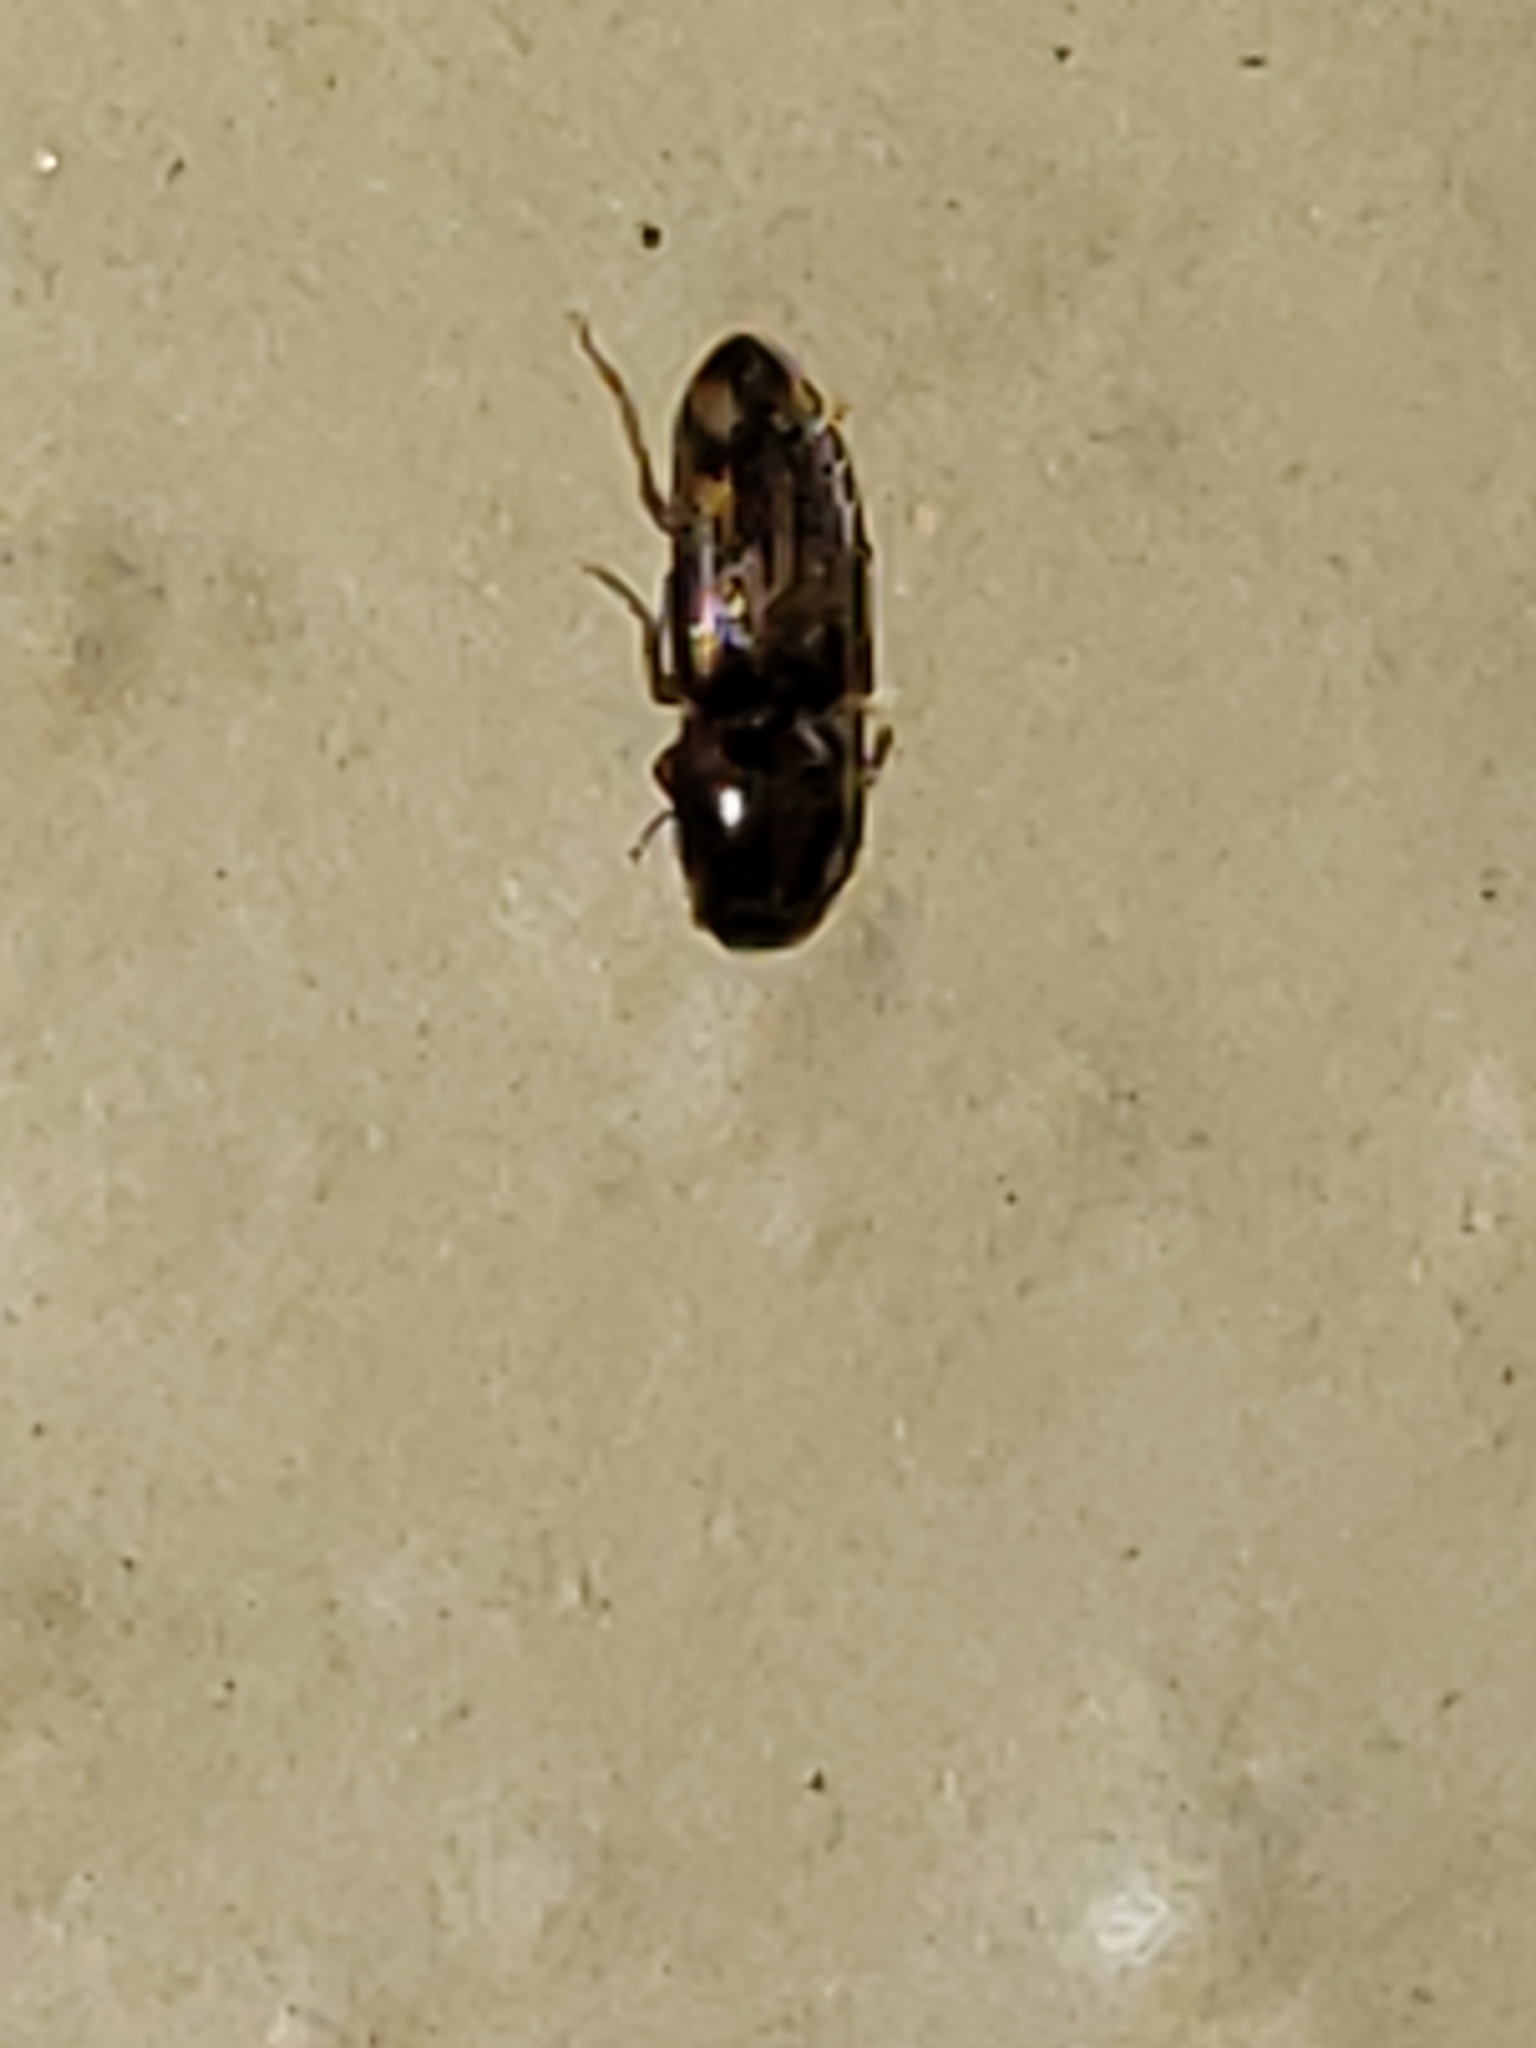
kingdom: Animalia
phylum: Arthropoda
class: Insecta
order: Coleoptera
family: Elateridae
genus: Monocrepidius
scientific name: Monocrepidius bellus
